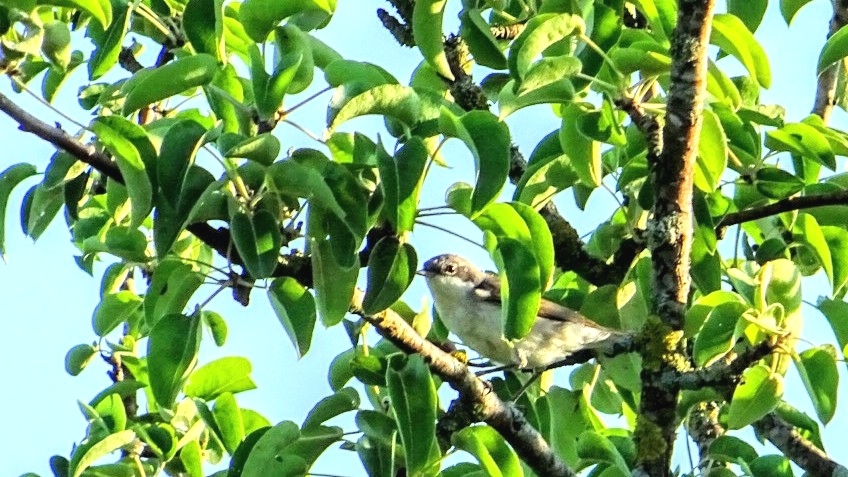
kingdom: Animalia
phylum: Chordata
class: Aves
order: Passeriformes
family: Muscicapidae
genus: Ficedula
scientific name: Ficedula hypoleuca
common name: European pied flycatcher
